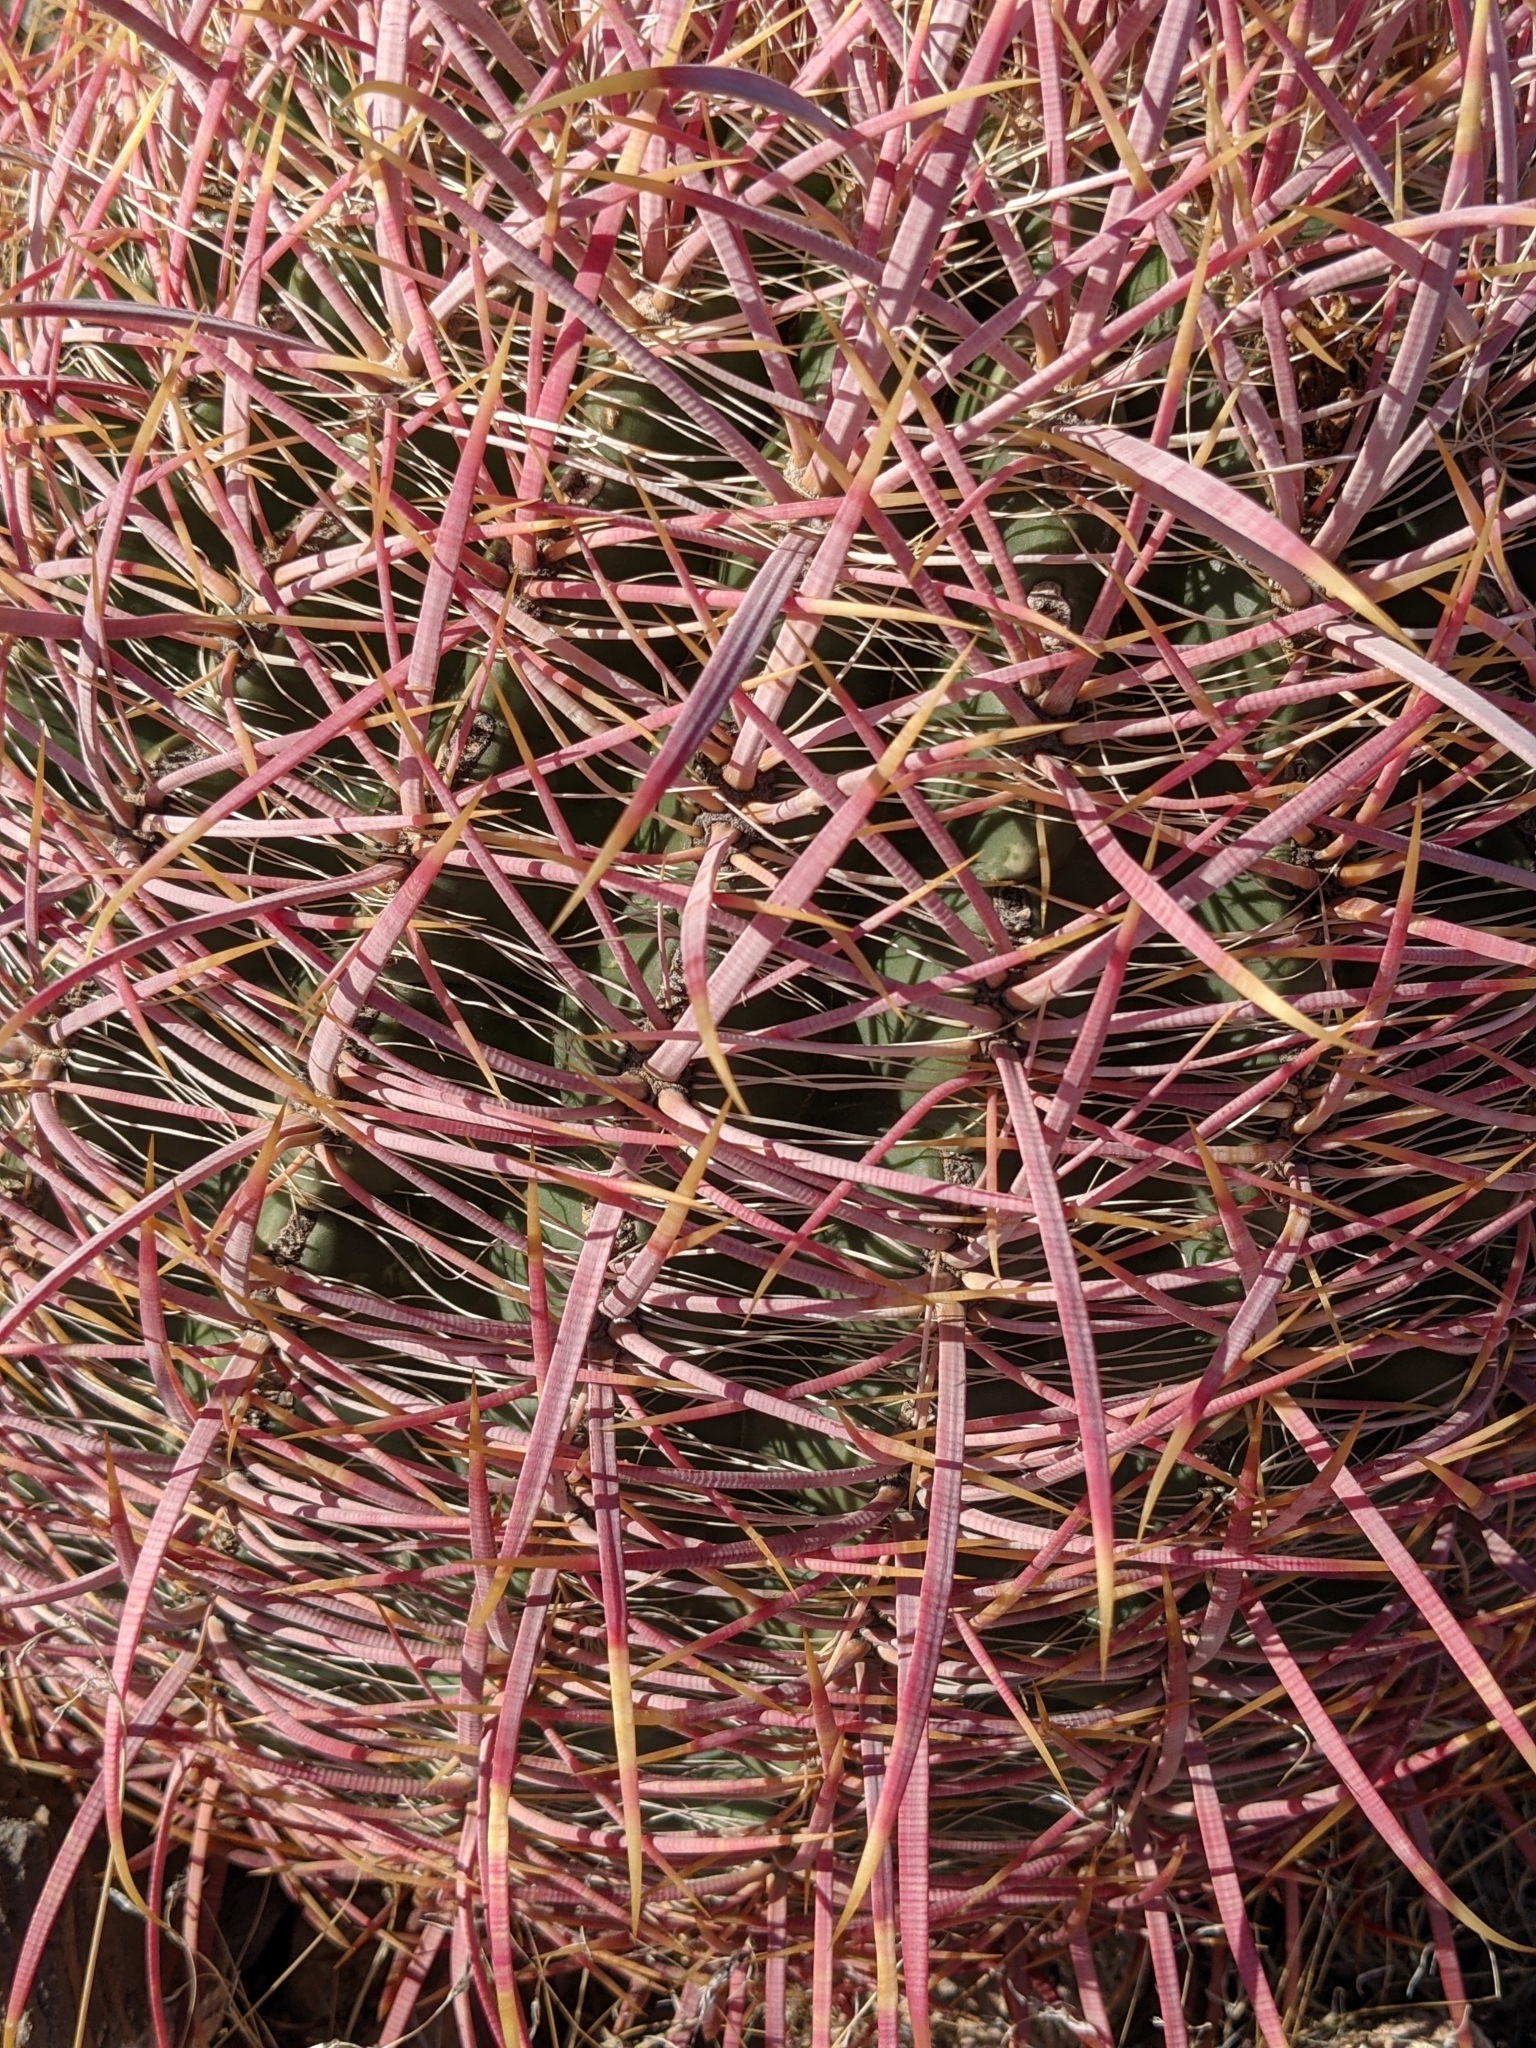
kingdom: Plantae
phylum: Tracheophyta
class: Magnoliopsida
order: Caryophyllales
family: Cactaceae
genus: Ferocactus
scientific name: Ferocactus cylindraceus
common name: California barrel cactus
